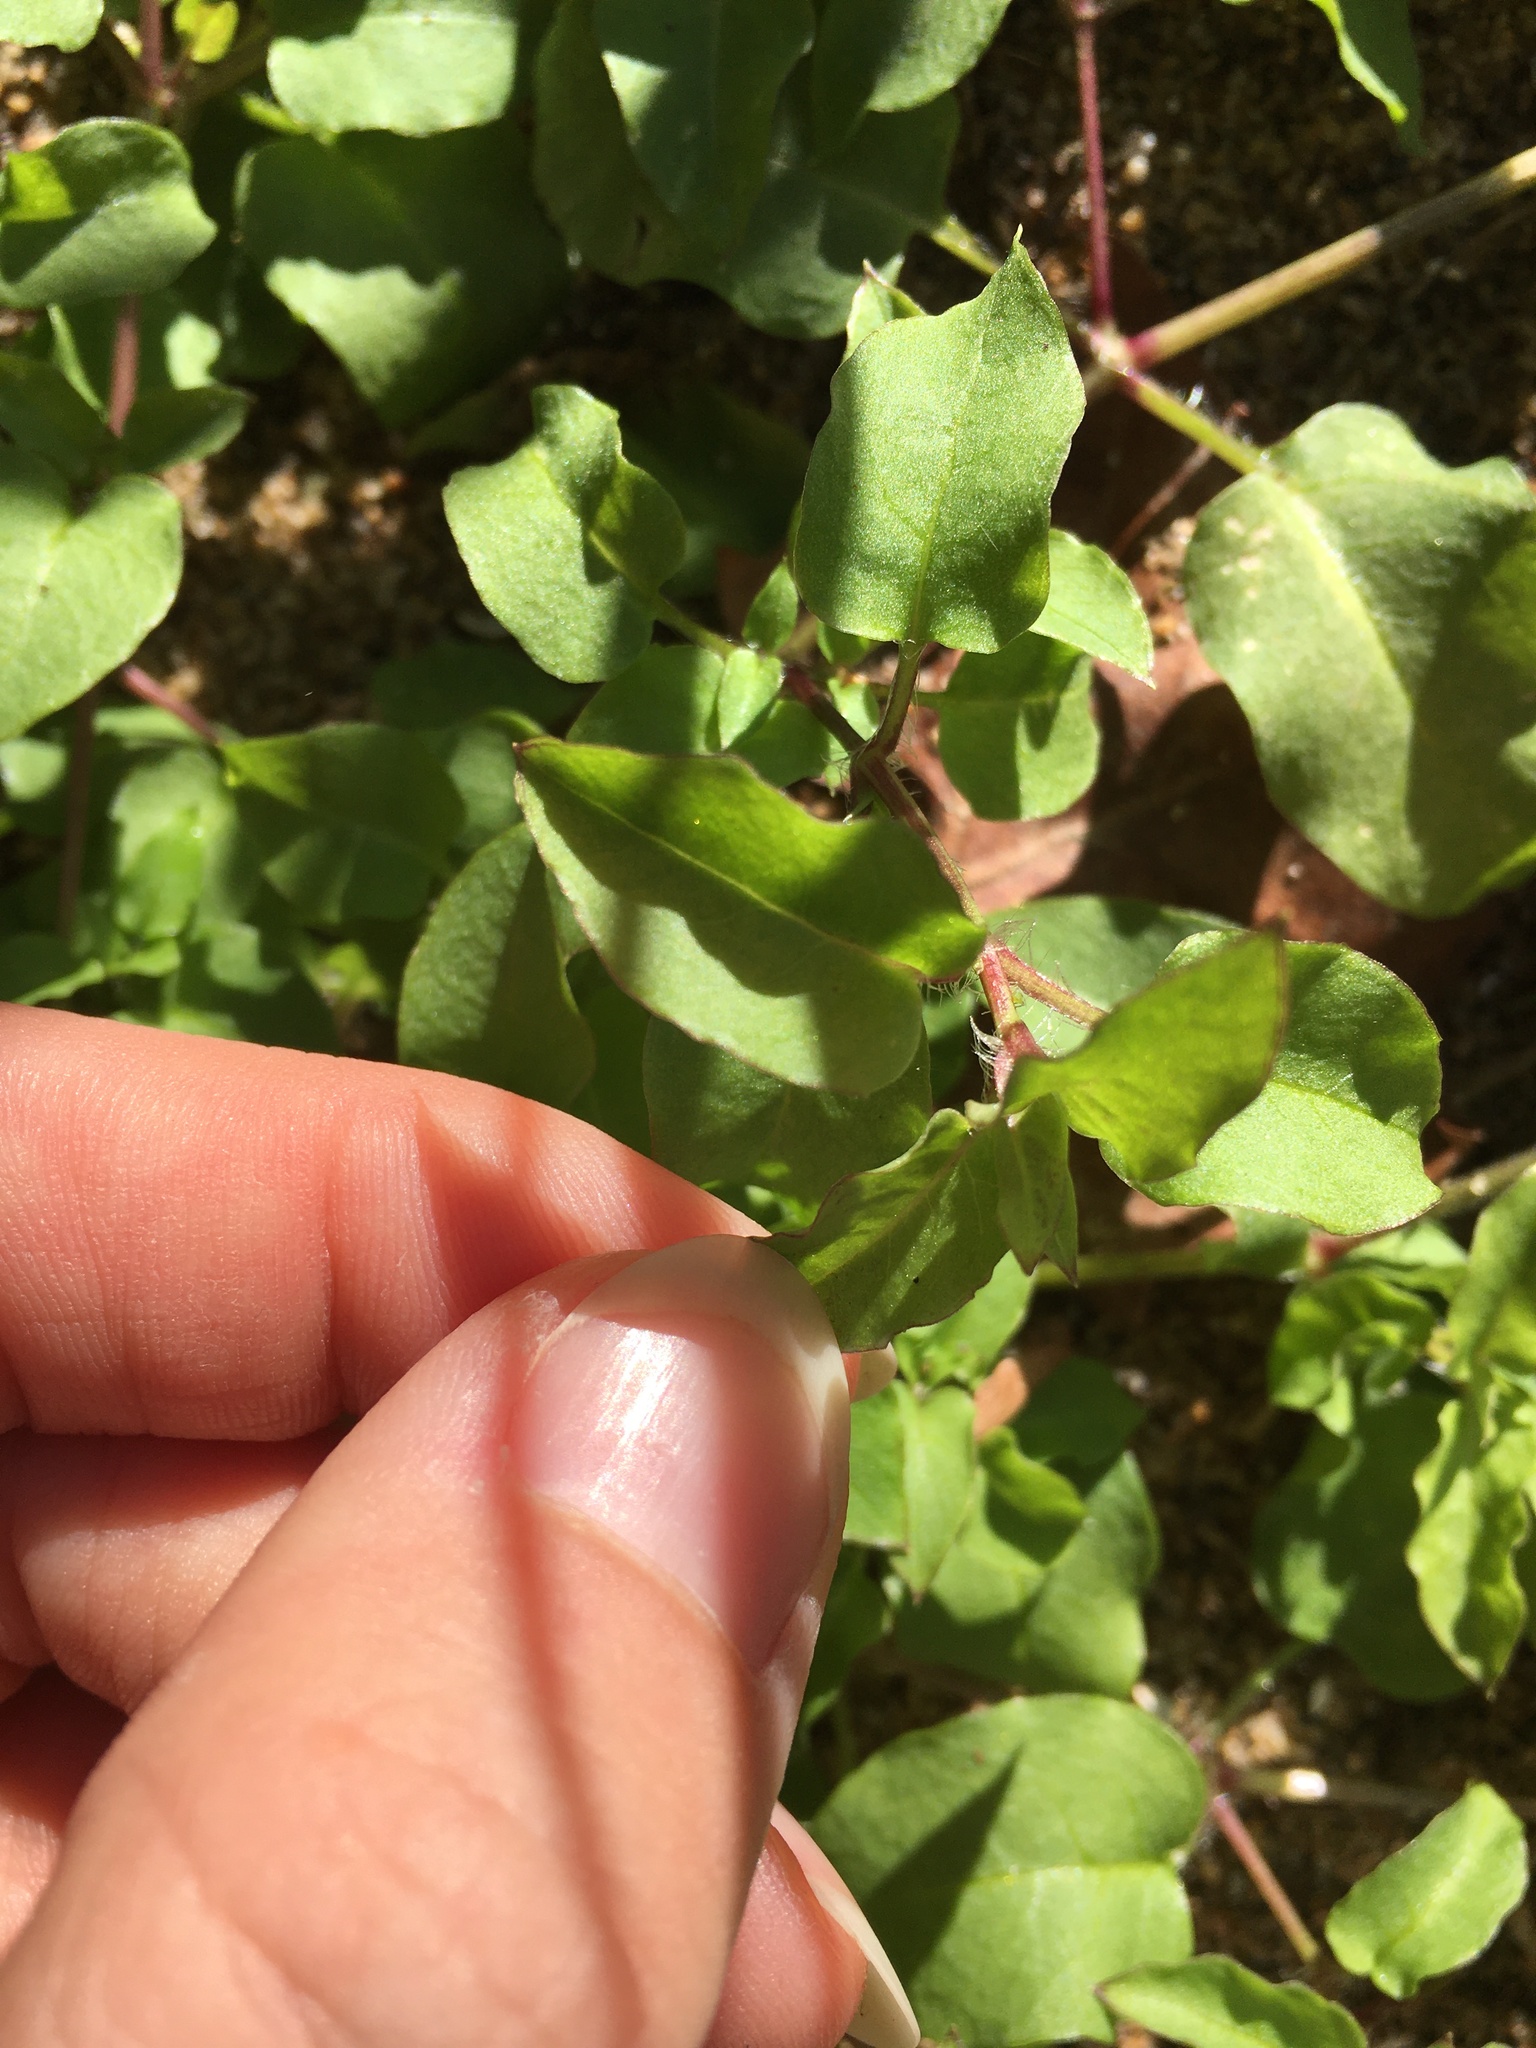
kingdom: Plantae
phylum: Tracheophyta
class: Magnoliopsida
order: Caryophyllales
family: Caryophyllaceae
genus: Stellaria
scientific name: Stellaria aquatica
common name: Water chickweed
